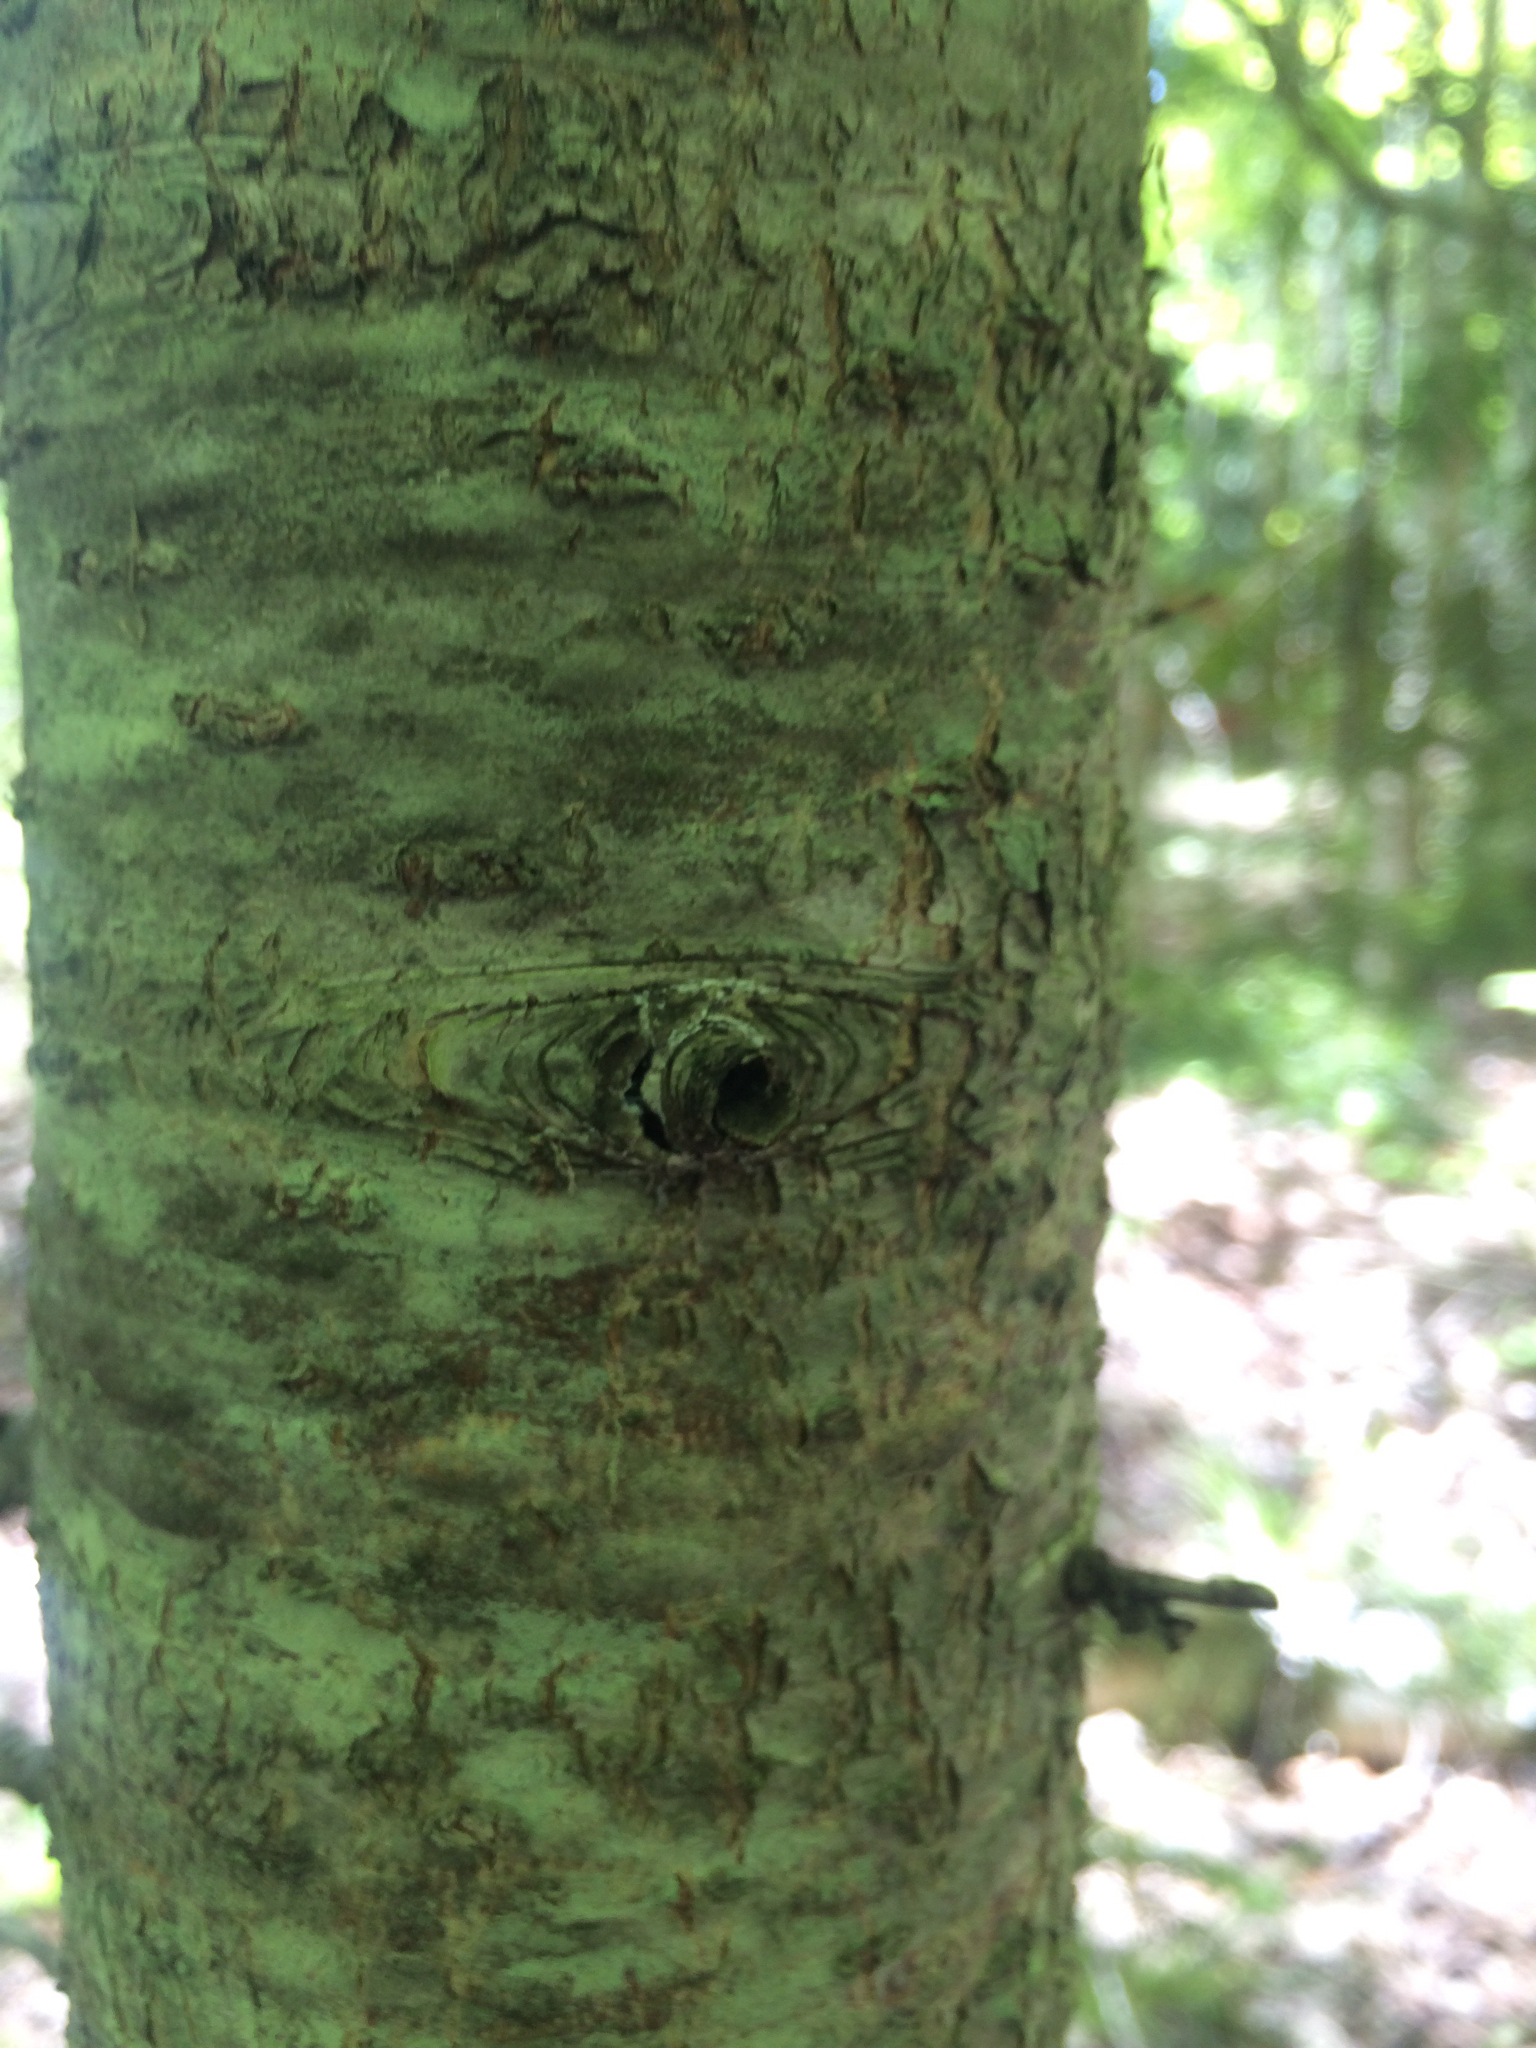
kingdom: Plantae
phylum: Tracheophyta
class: Pinopsida
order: Pinales
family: Pinaceae
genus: Abies
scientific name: Abies balsamea
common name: Balsam fir
